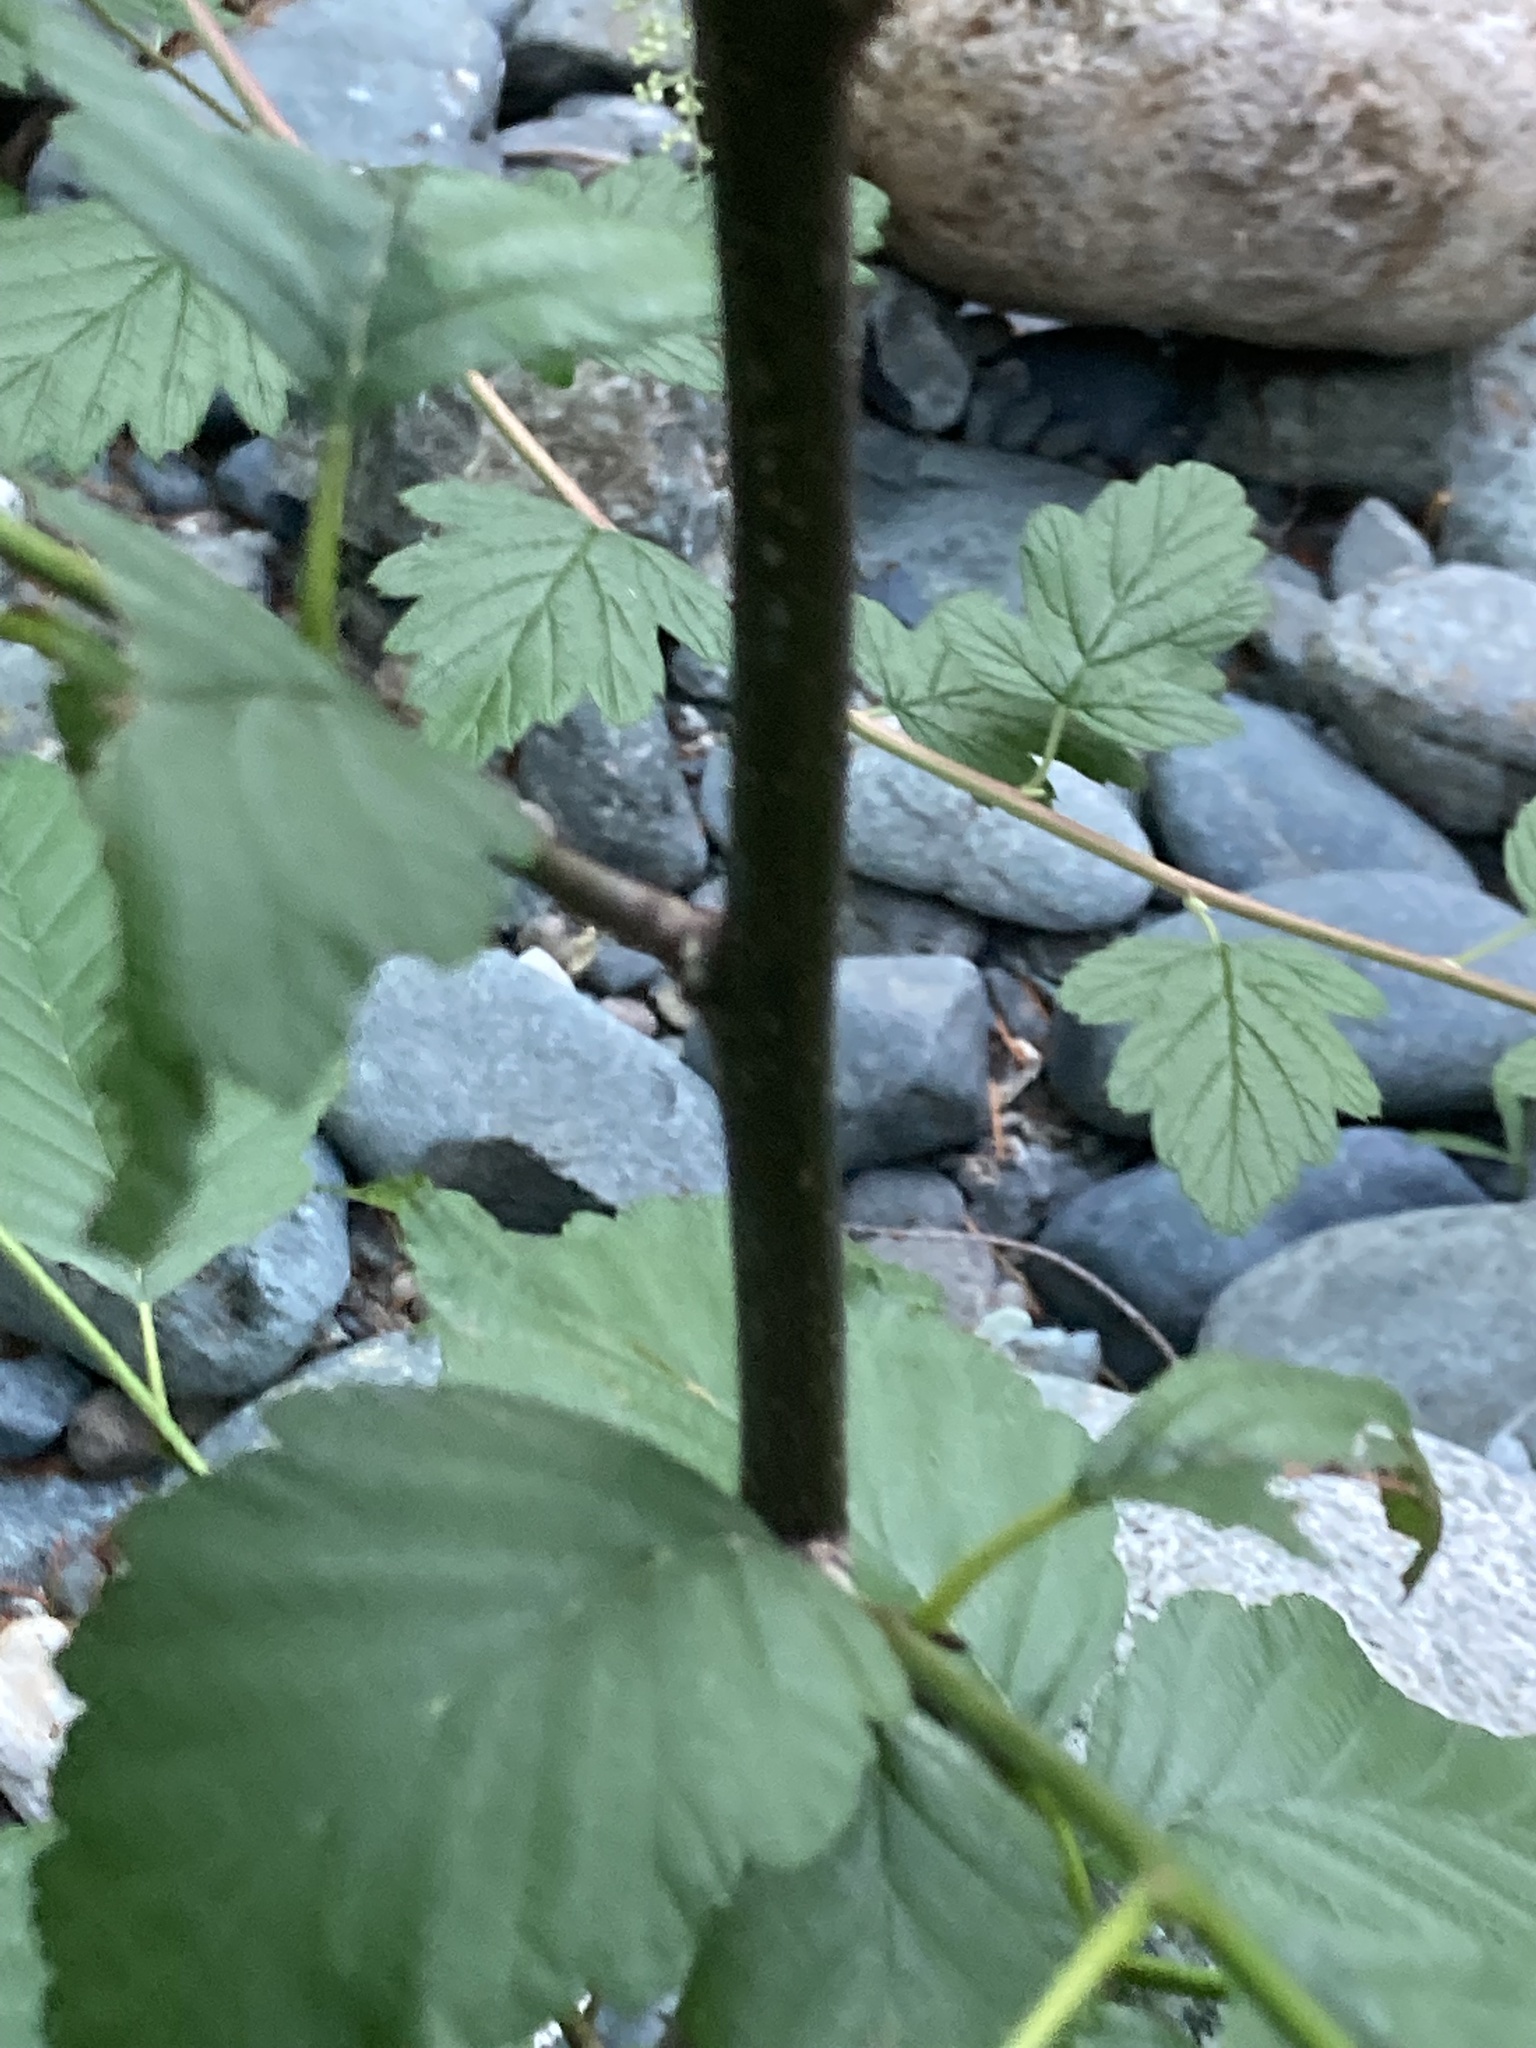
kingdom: Plantae
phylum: Tracheophyta
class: Magnoliopsida
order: Fagales
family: Betulaceae
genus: Alnus
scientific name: Alnus rubra
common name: Red alder
